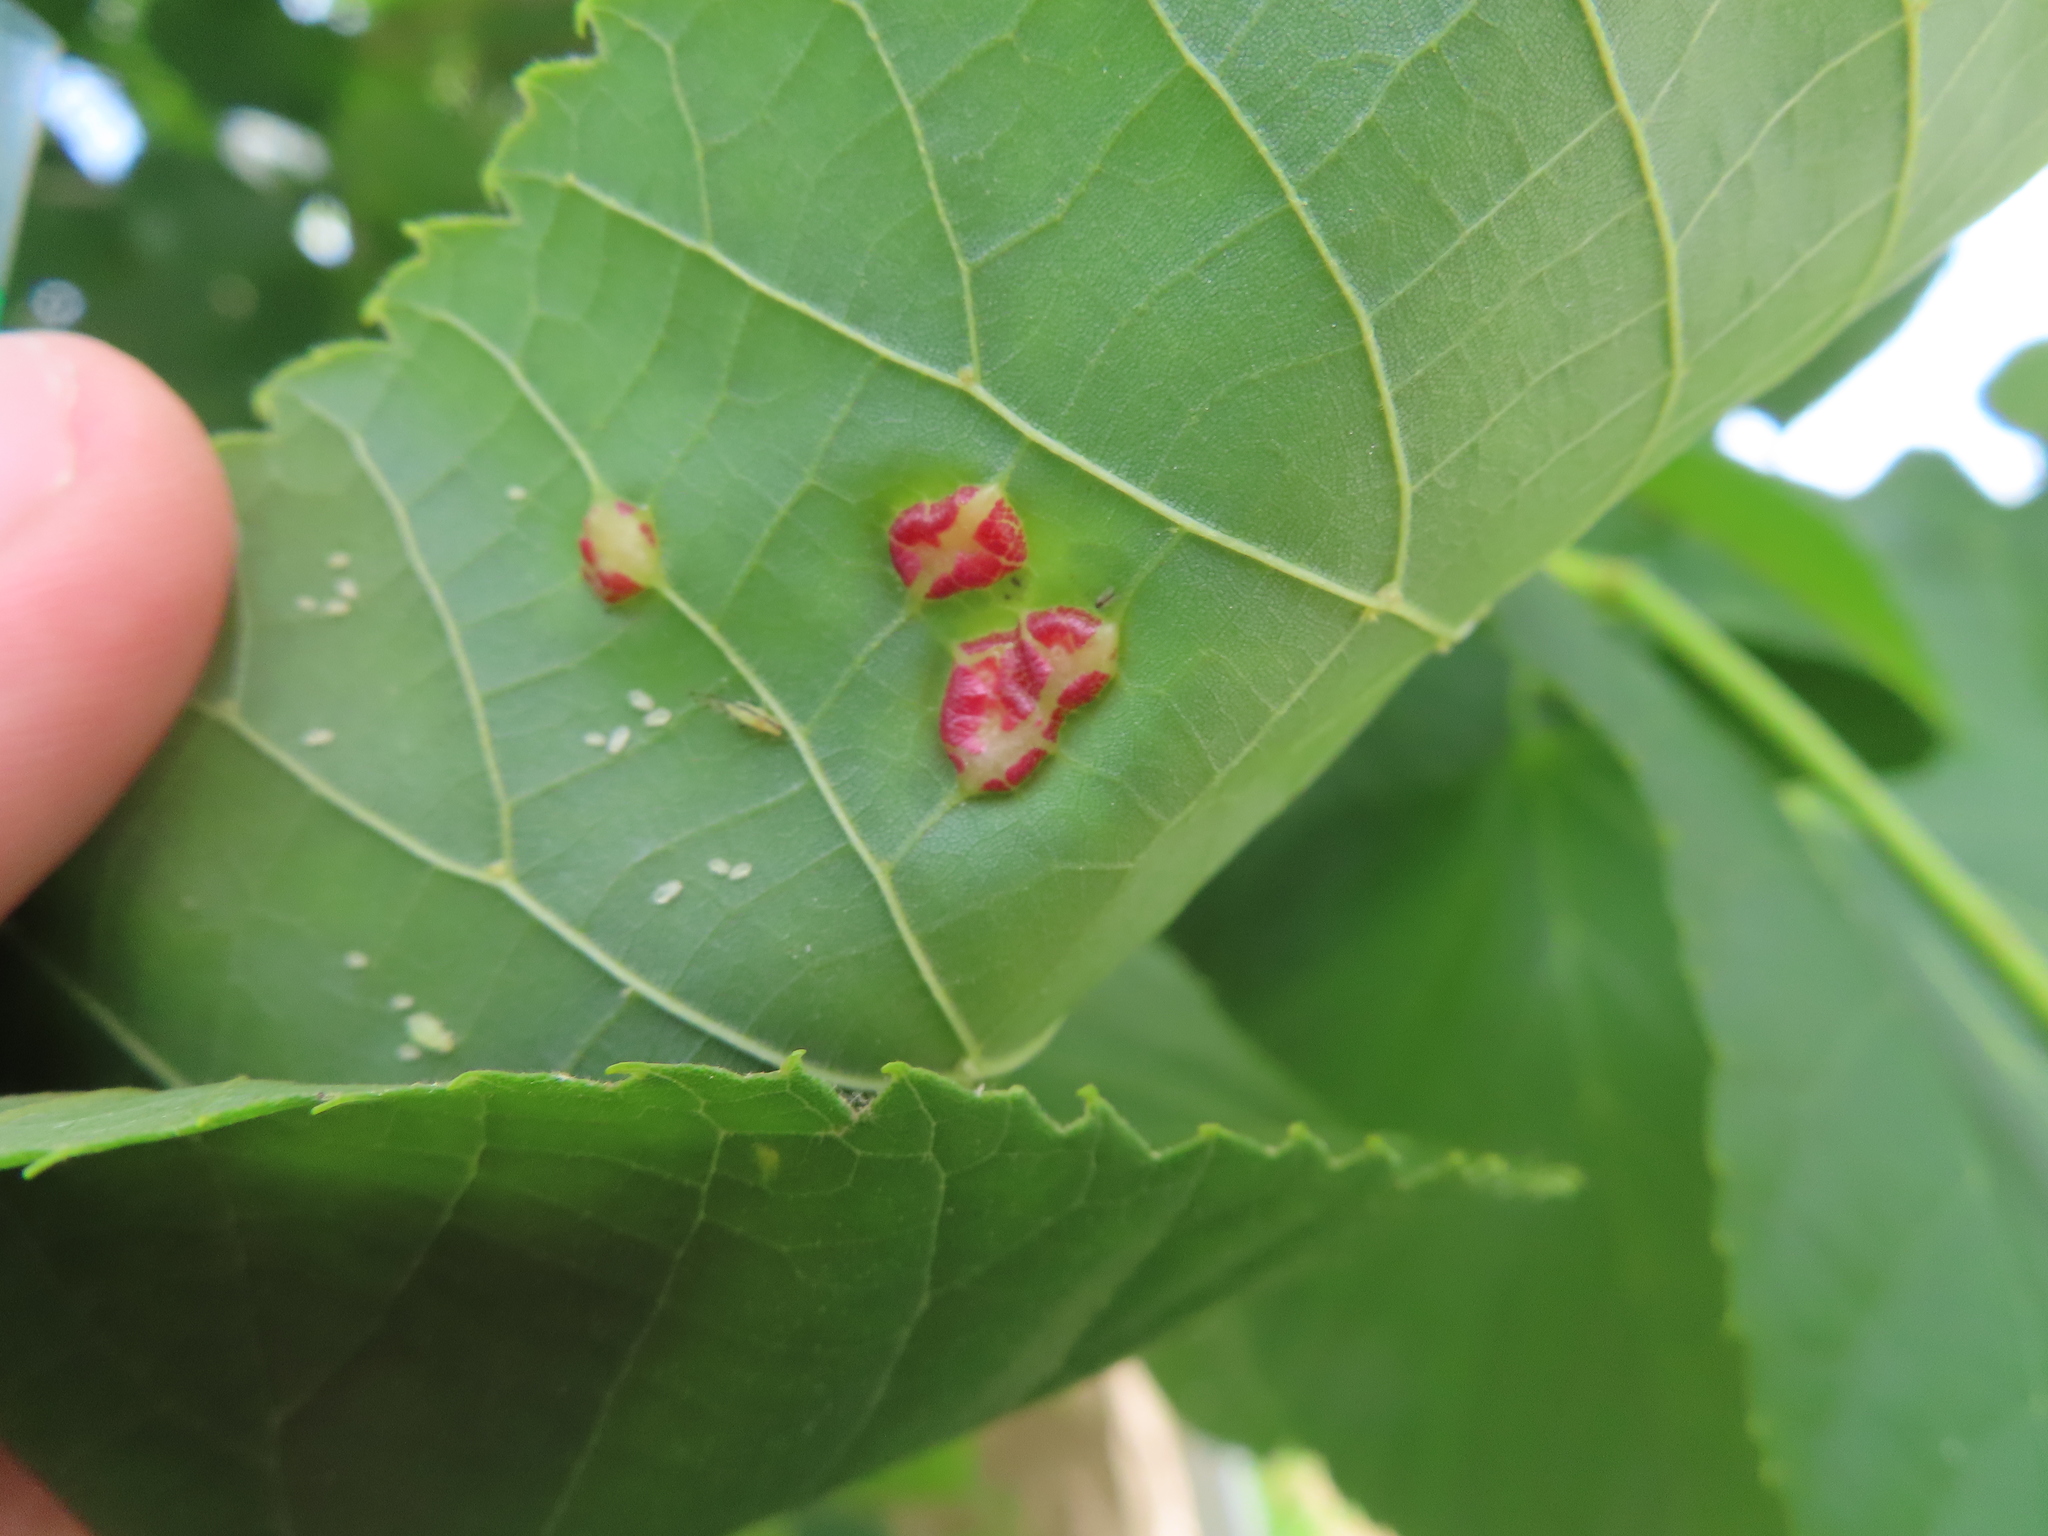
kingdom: Animalia
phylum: Arthropoda
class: Insecta
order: Diptera
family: Cecidomyiidae
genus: Contarinia
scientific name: Contarinia verrucicola
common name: Linden wart gall midge
